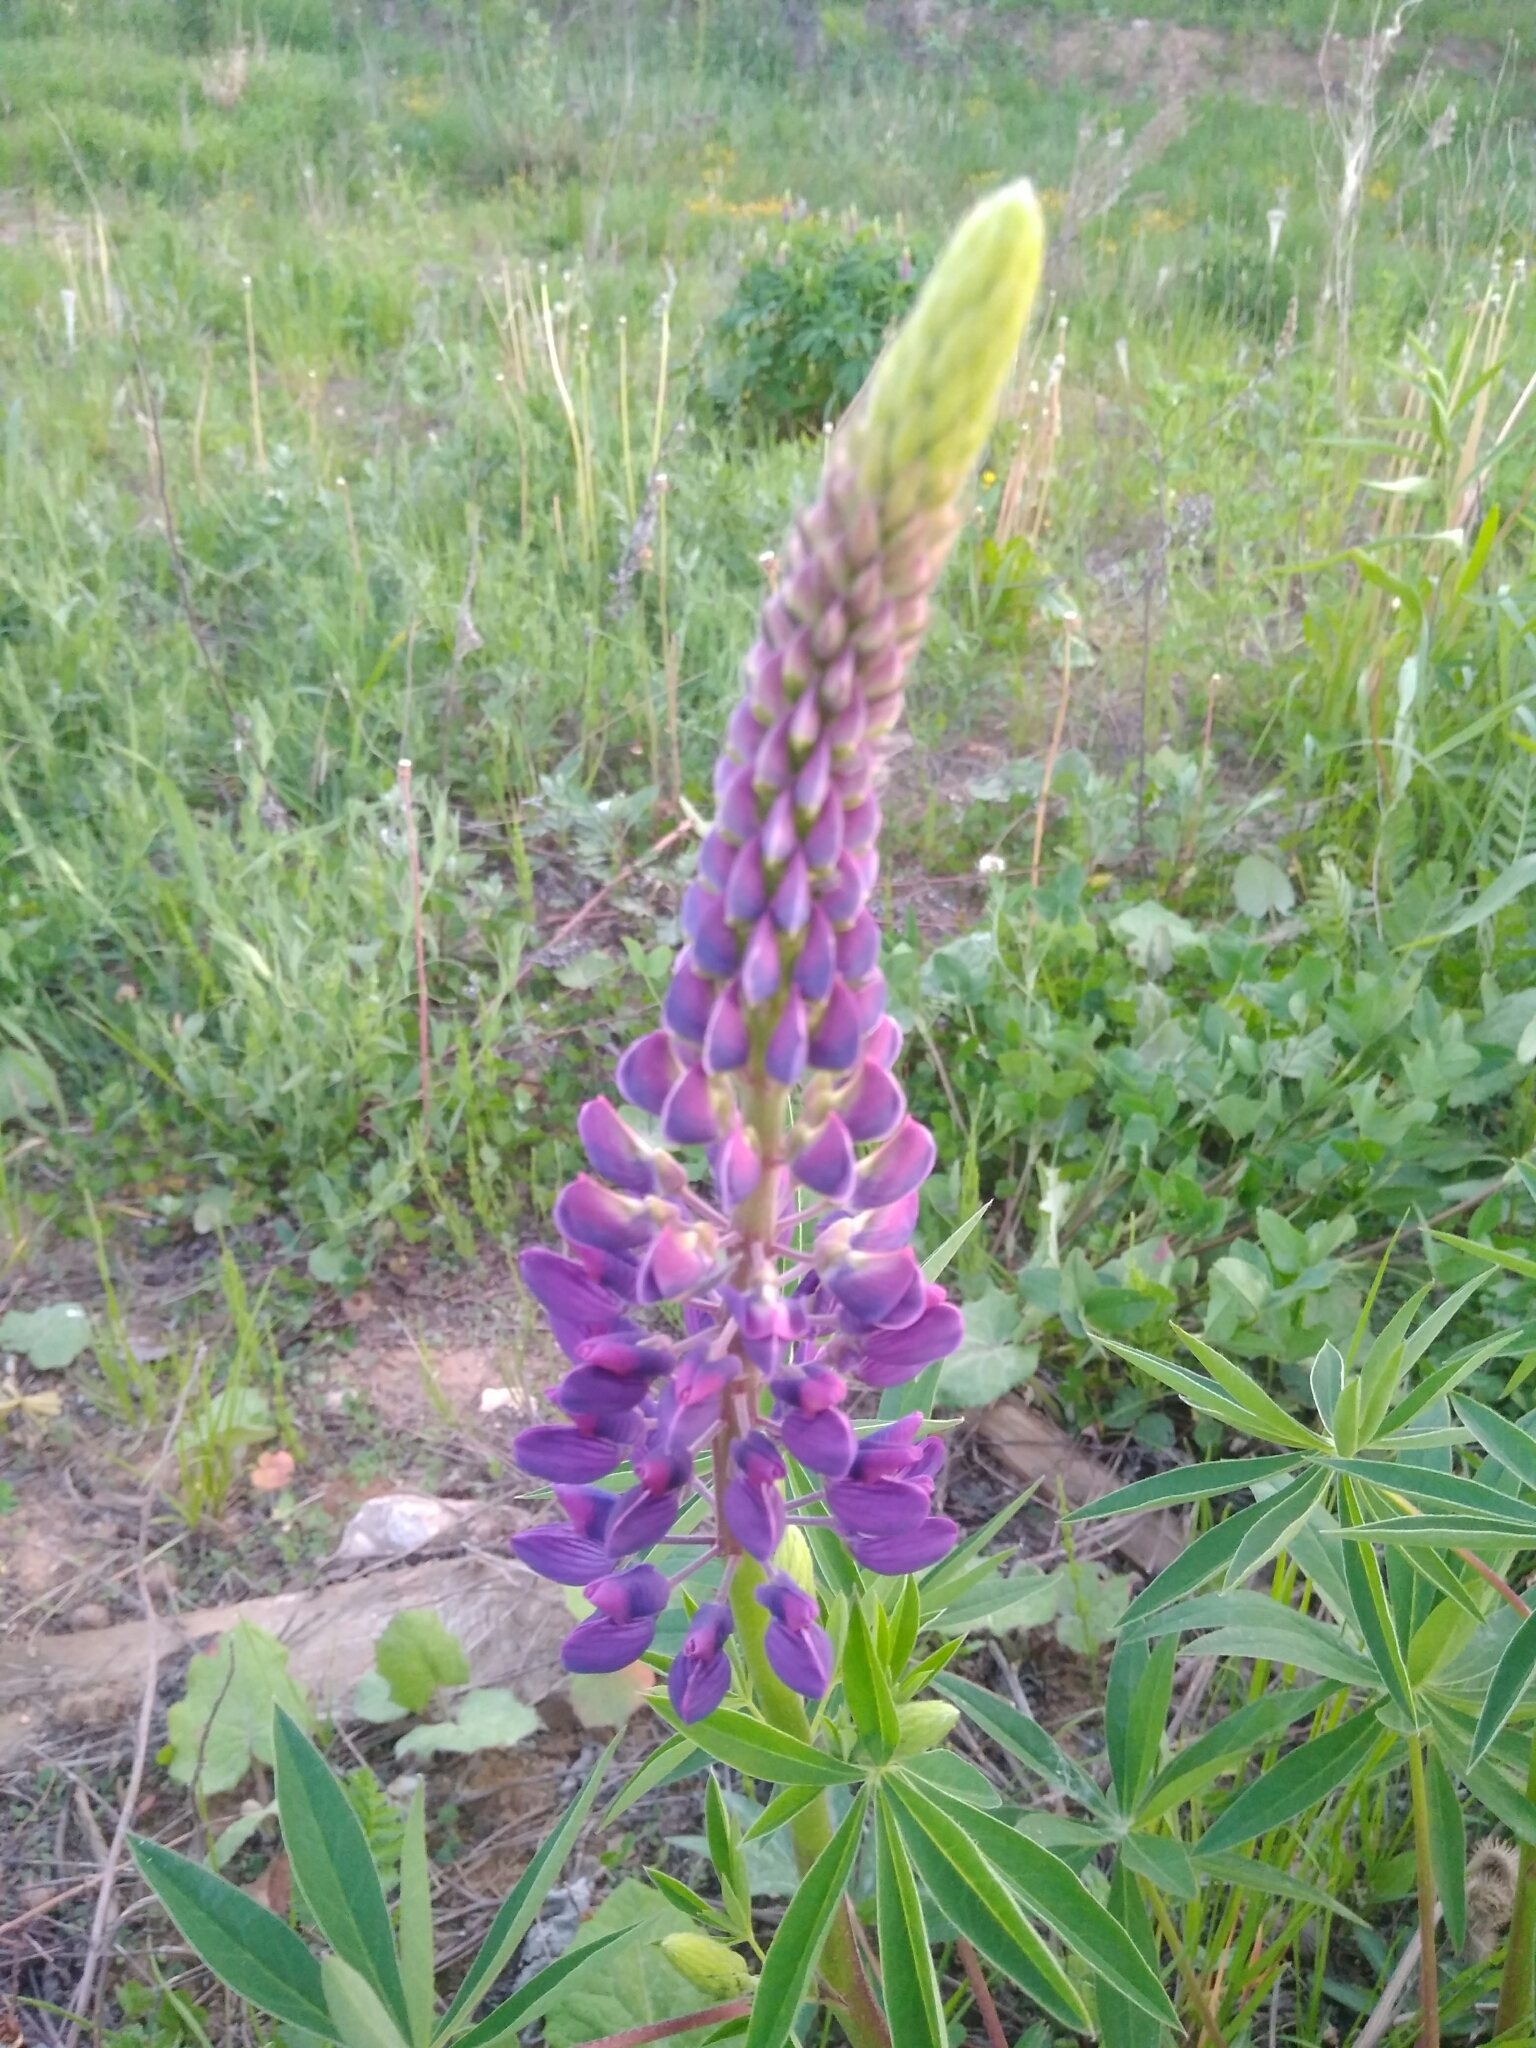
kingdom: Plantae
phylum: Tracheophyta
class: Magnoliopsida
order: Fabales
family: Fabaceae
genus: Lupinus
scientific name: Lupinus polyphyllus
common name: Garden lupin
